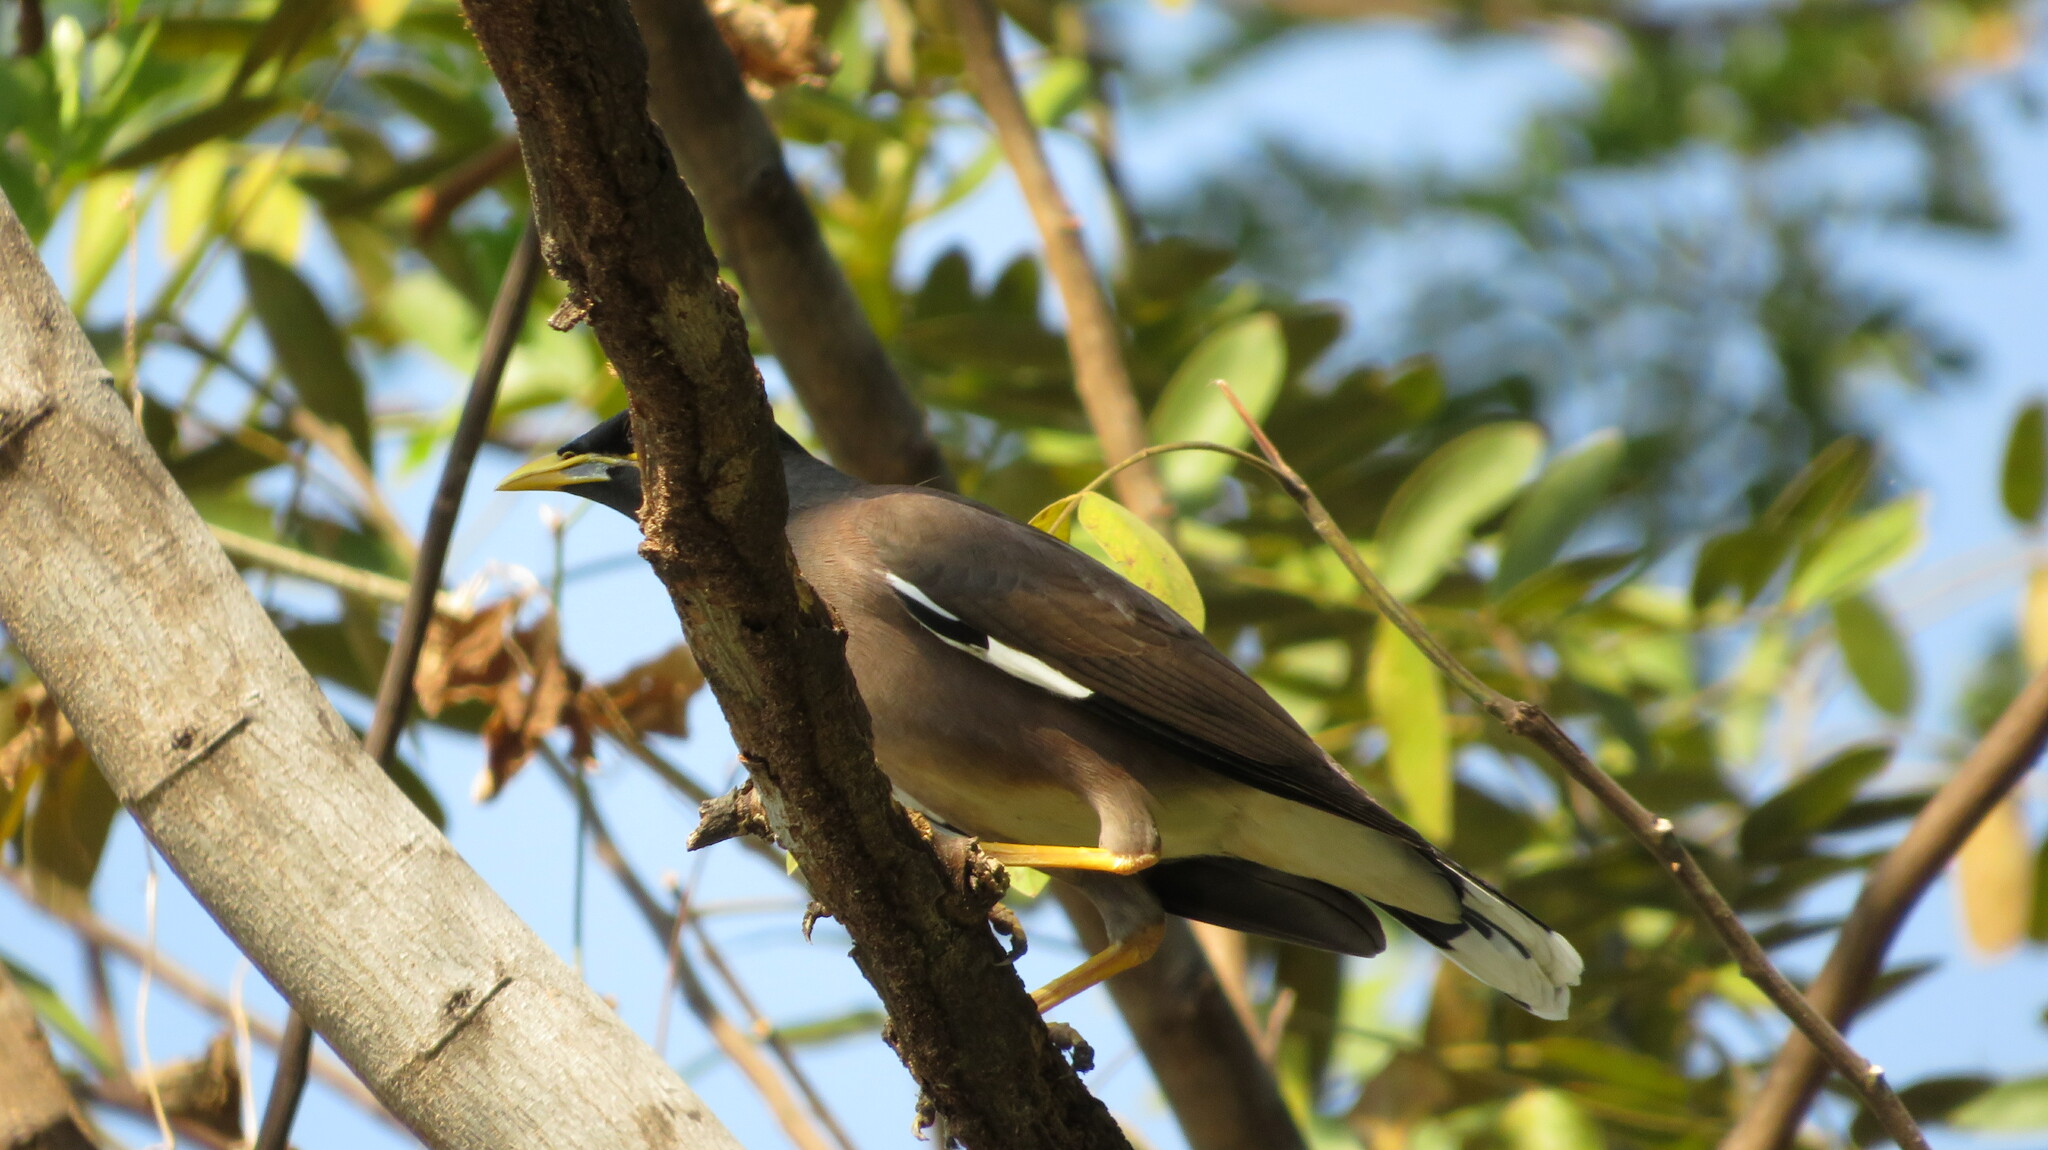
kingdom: Animalia
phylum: Chordata
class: Aves
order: Passeriformes
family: Sturnidae
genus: Acridotheres
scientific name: Acridotheres tristis
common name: Common myna
